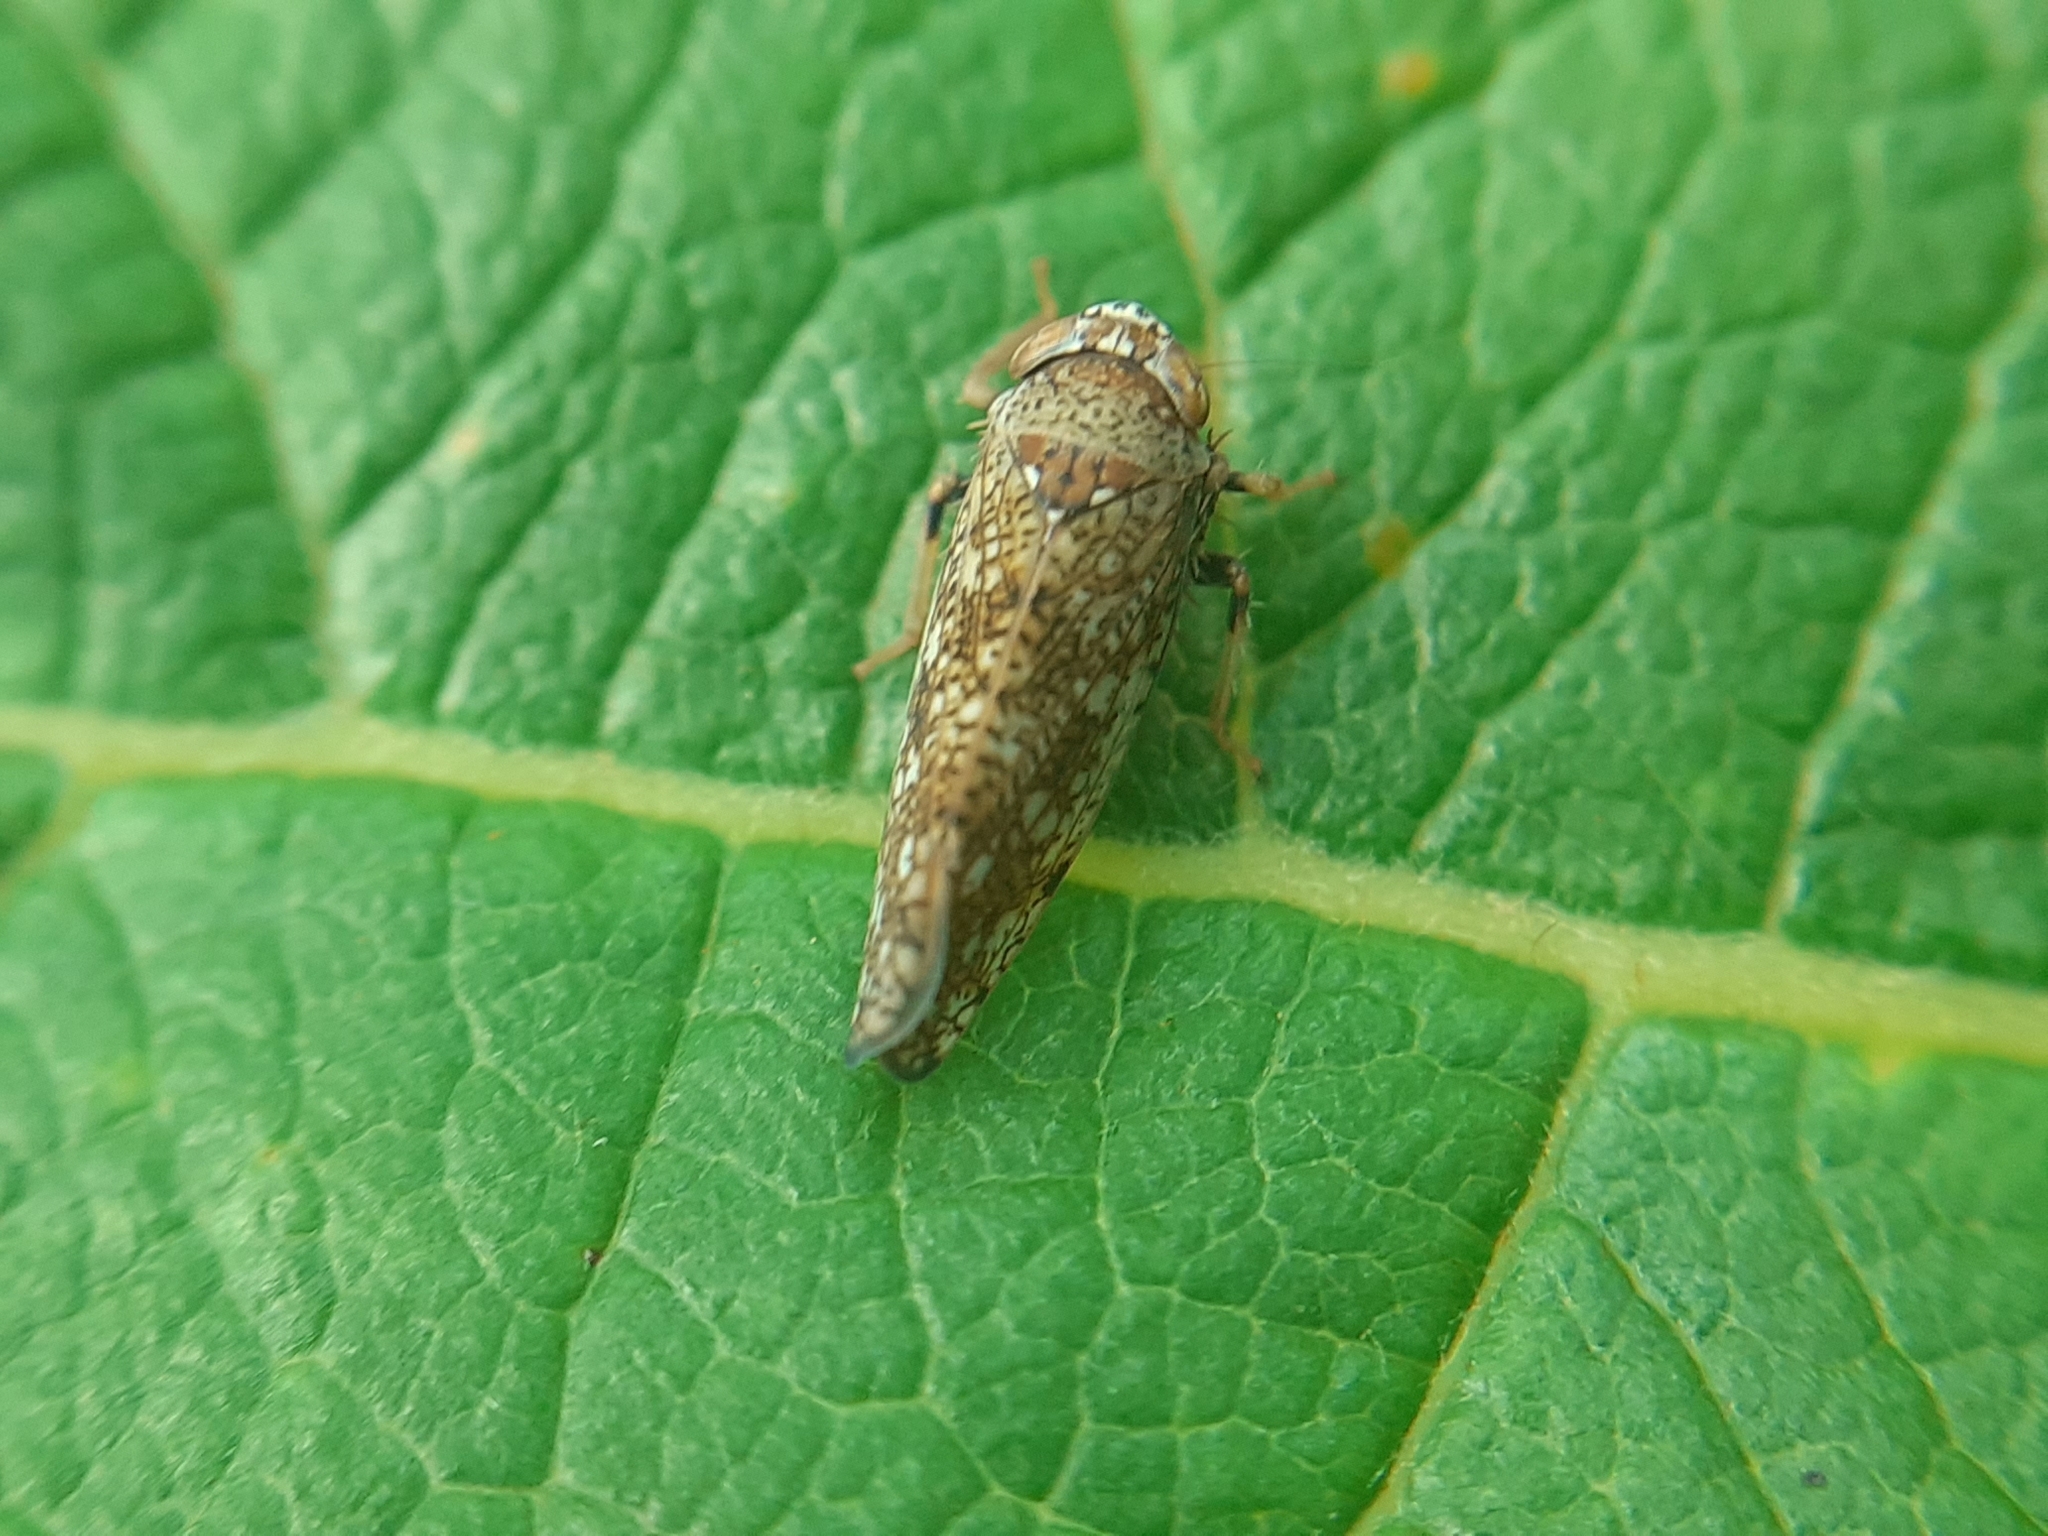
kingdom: Animalia
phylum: Arthropoda
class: Insecta
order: Hemiptera
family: Cicadellidae
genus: Orientus
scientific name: Orientus ishidae
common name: Japanese leafhopper
